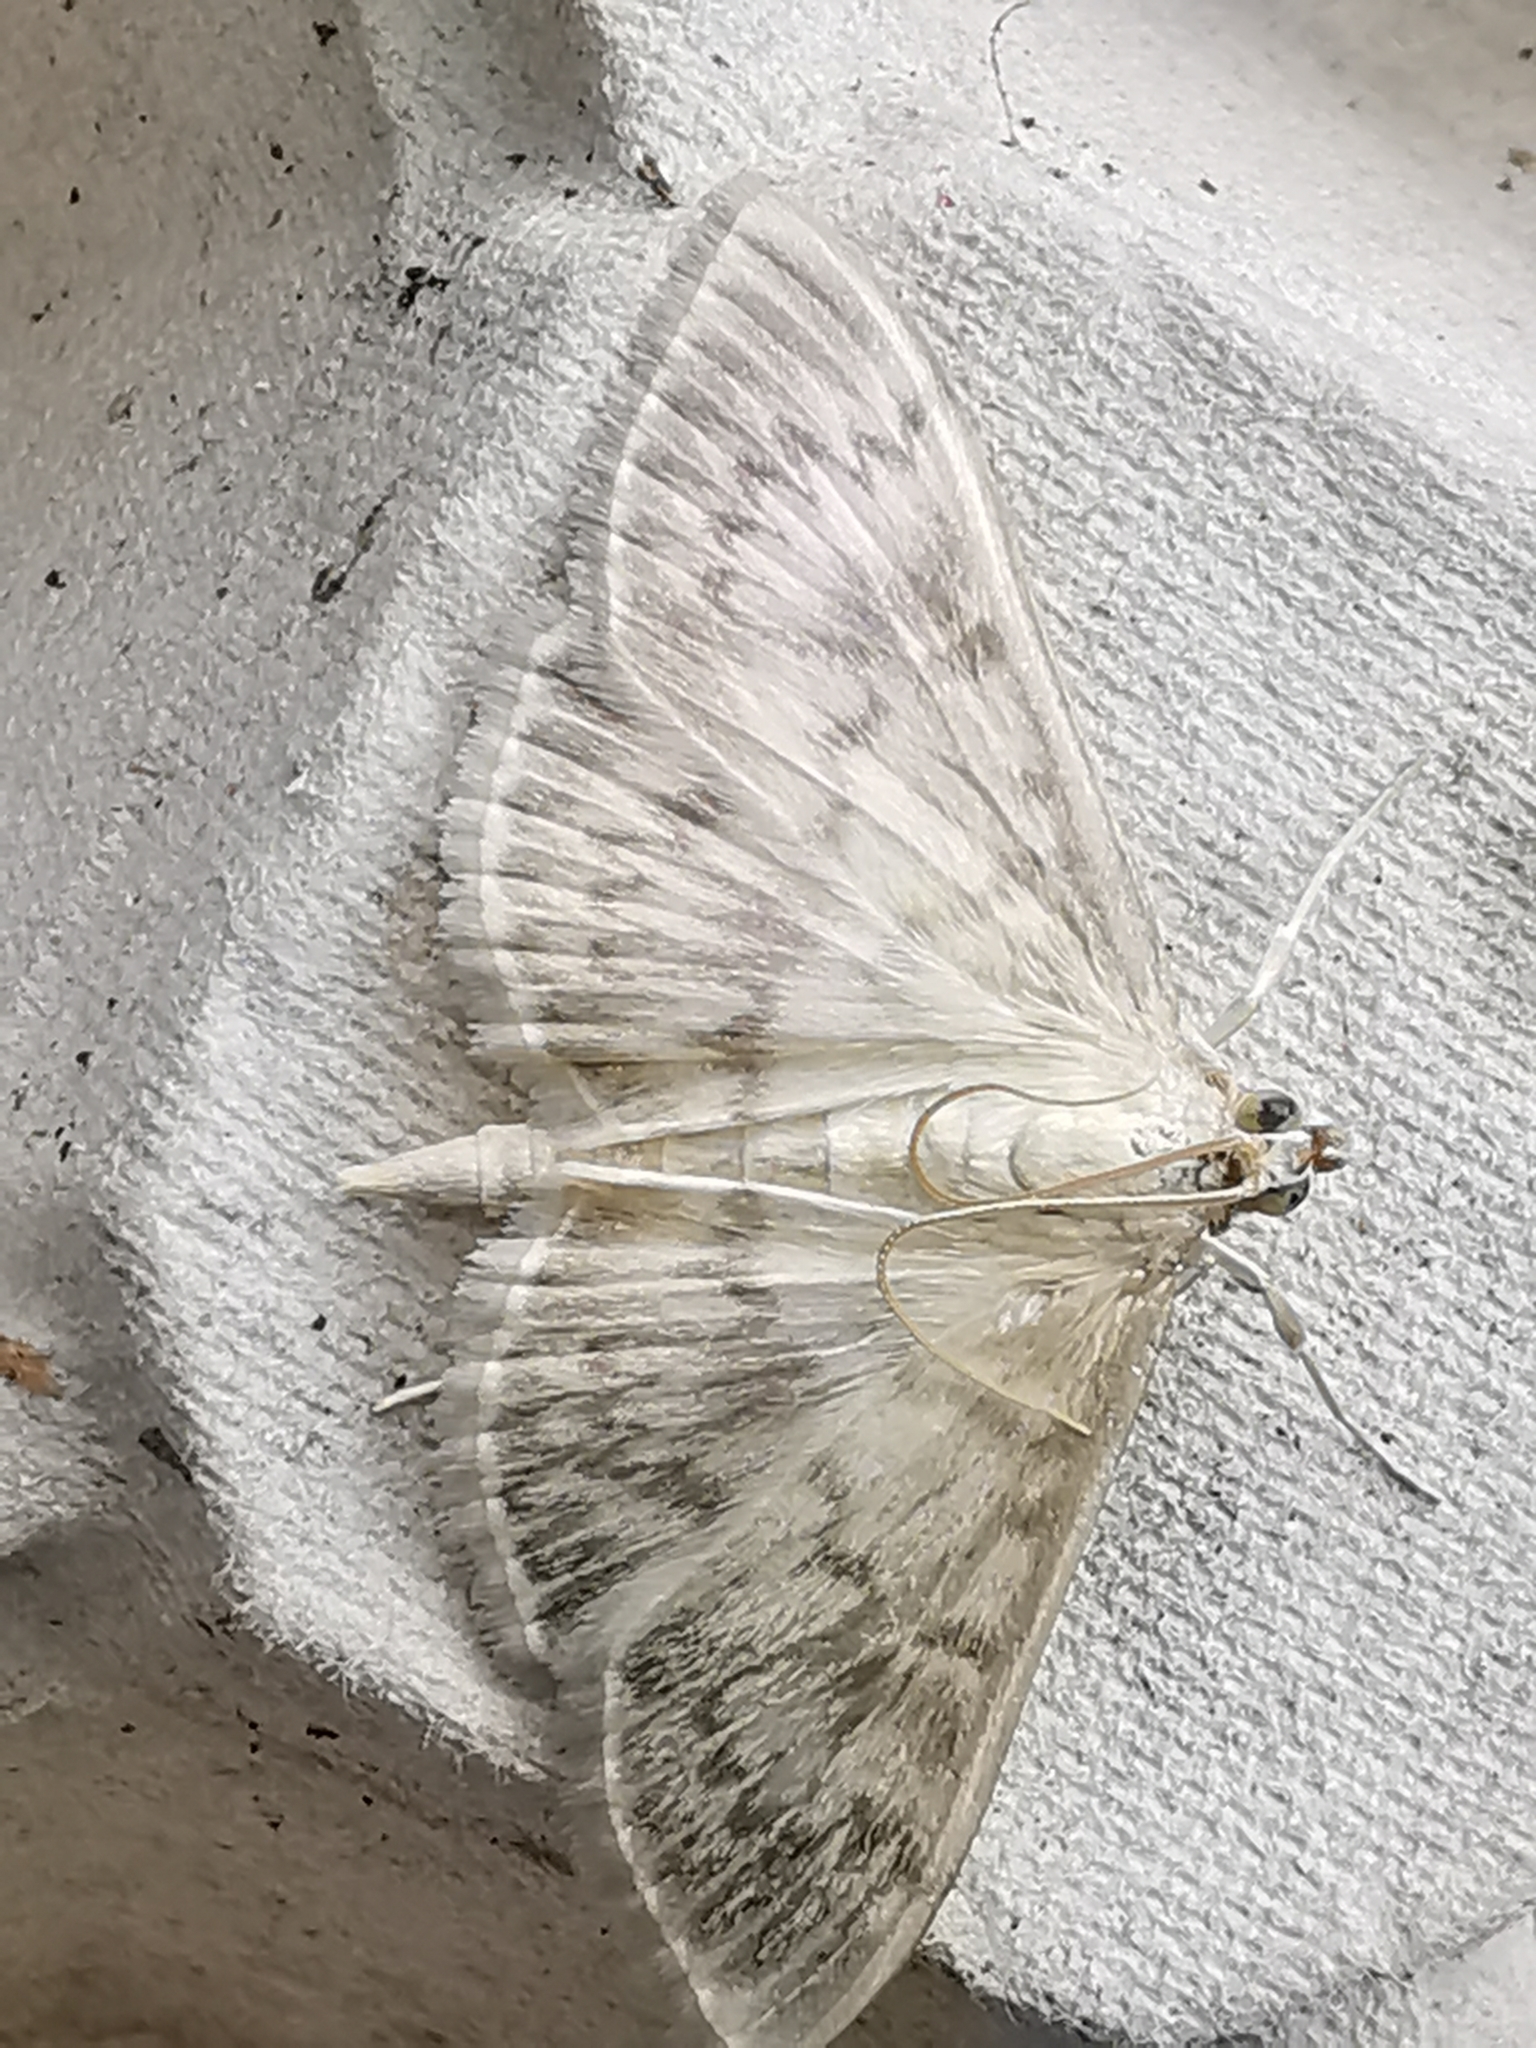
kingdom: Animalia
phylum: Arthropoda
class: Insecta
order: Lepidoptera
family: Crambidae
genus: Patania
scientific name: Patania ruralis
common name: Mother of pearl
